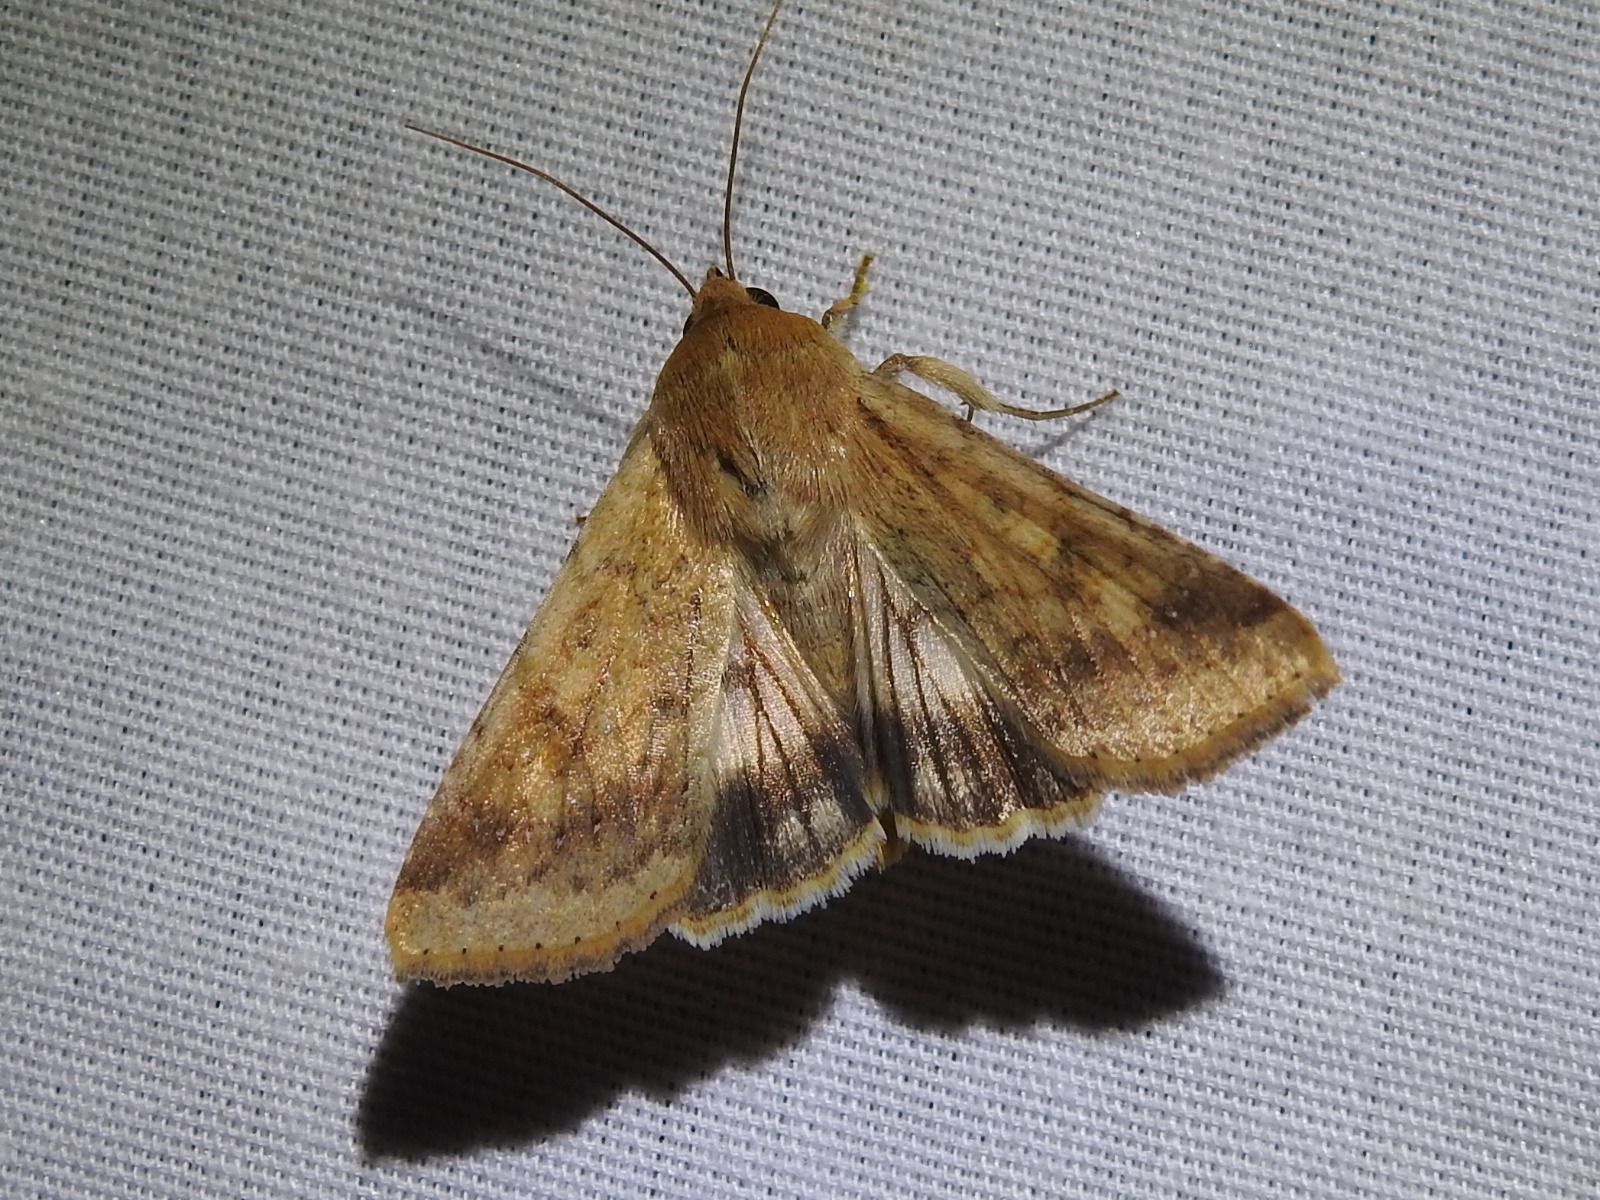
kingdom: Animalia
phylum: Arthropoda
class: Insecta
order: Lepidoptera
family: Noctuidae
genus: Helicoverpa
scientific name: Helicoverpa zea
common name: Bollworm
